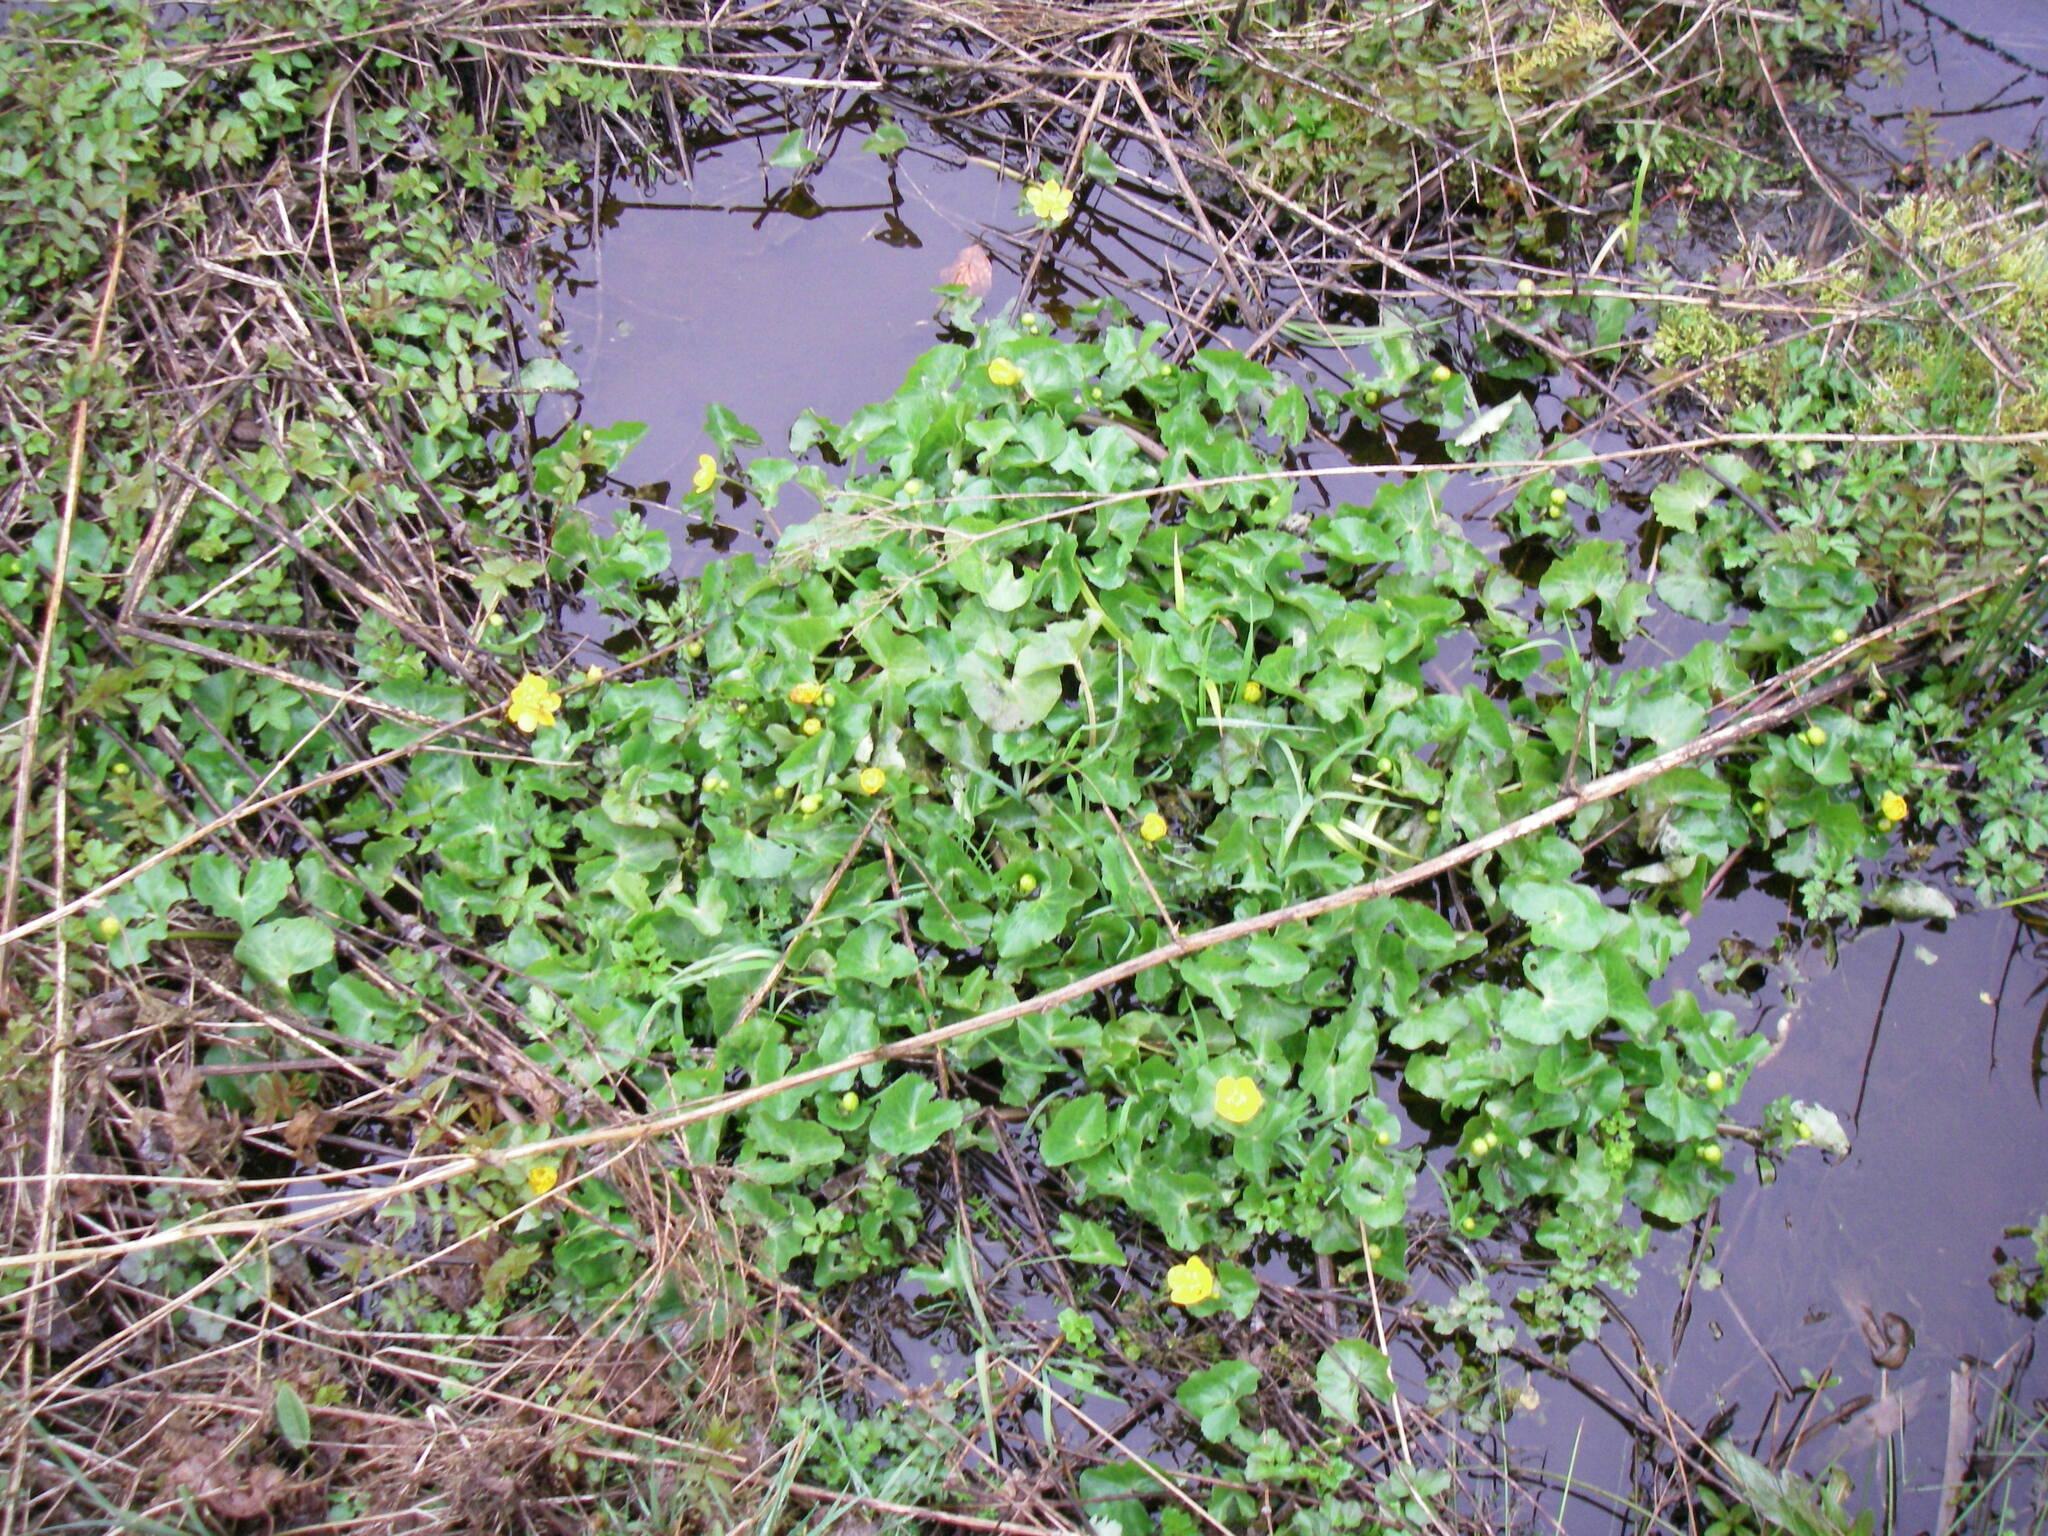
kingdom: Plantae
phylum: Tracheophyta
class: Magnoliopsida
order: Ranunculales
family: Ranunculaceae
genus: Caltha
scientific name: Caltha palustris
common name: Marsh marigold
